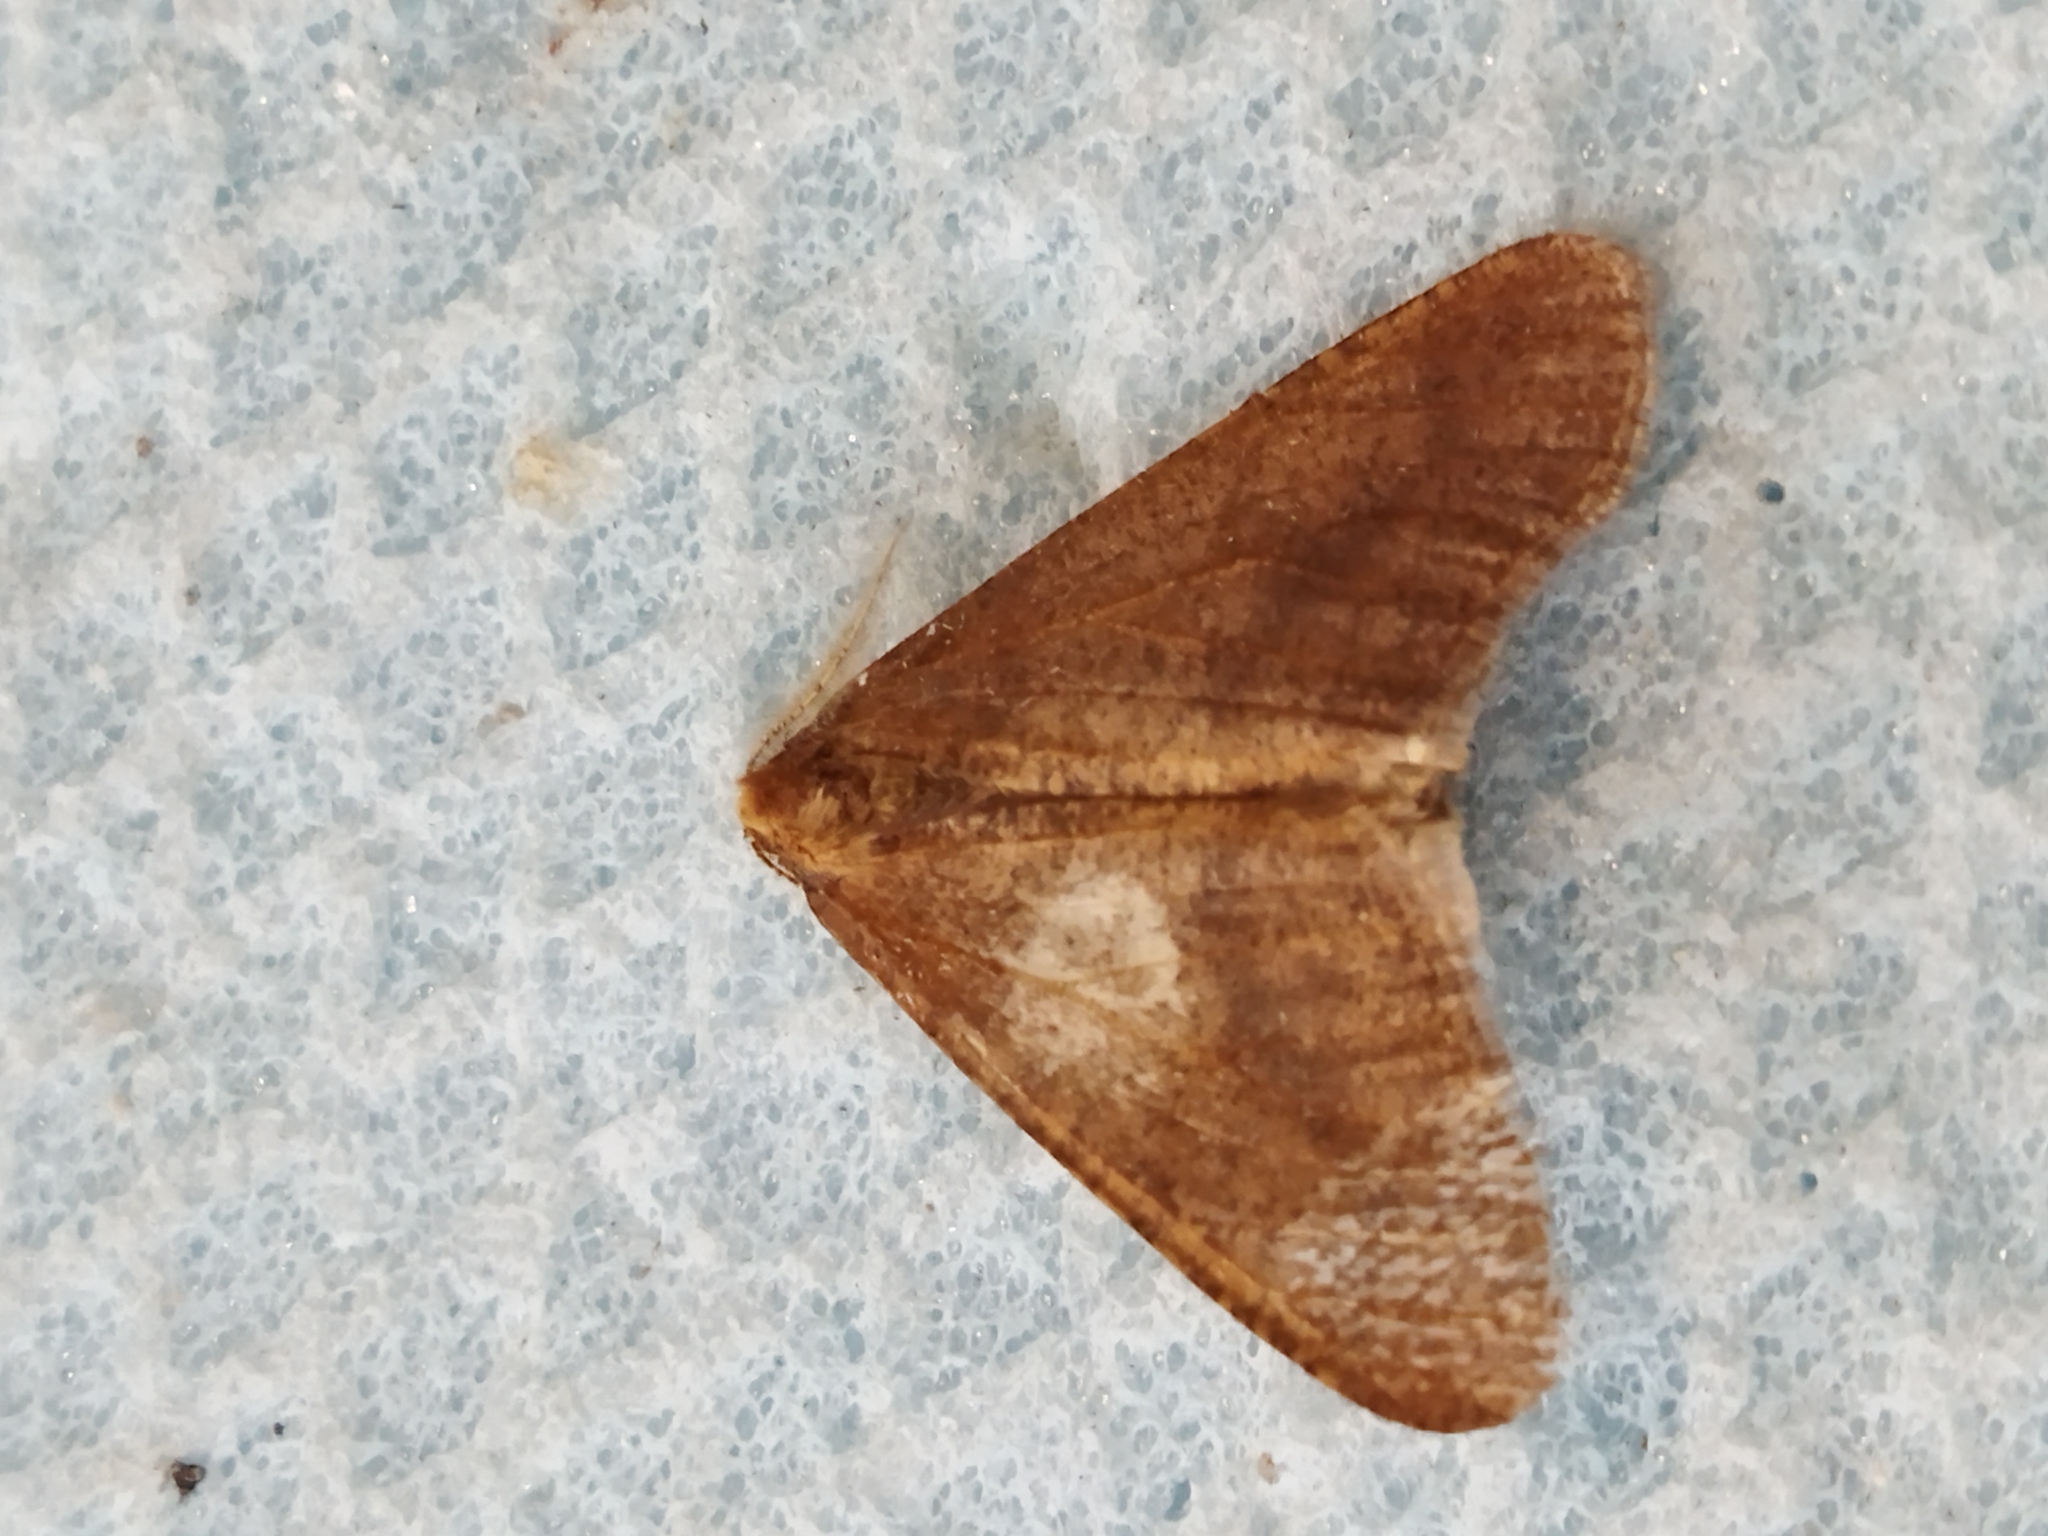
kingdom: Animalia
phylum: Arthropoda
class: Insecta
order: Lepidoptera
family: Geometridae
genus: Erannis
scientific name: Erannis defoliaria
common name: Mottled umber
